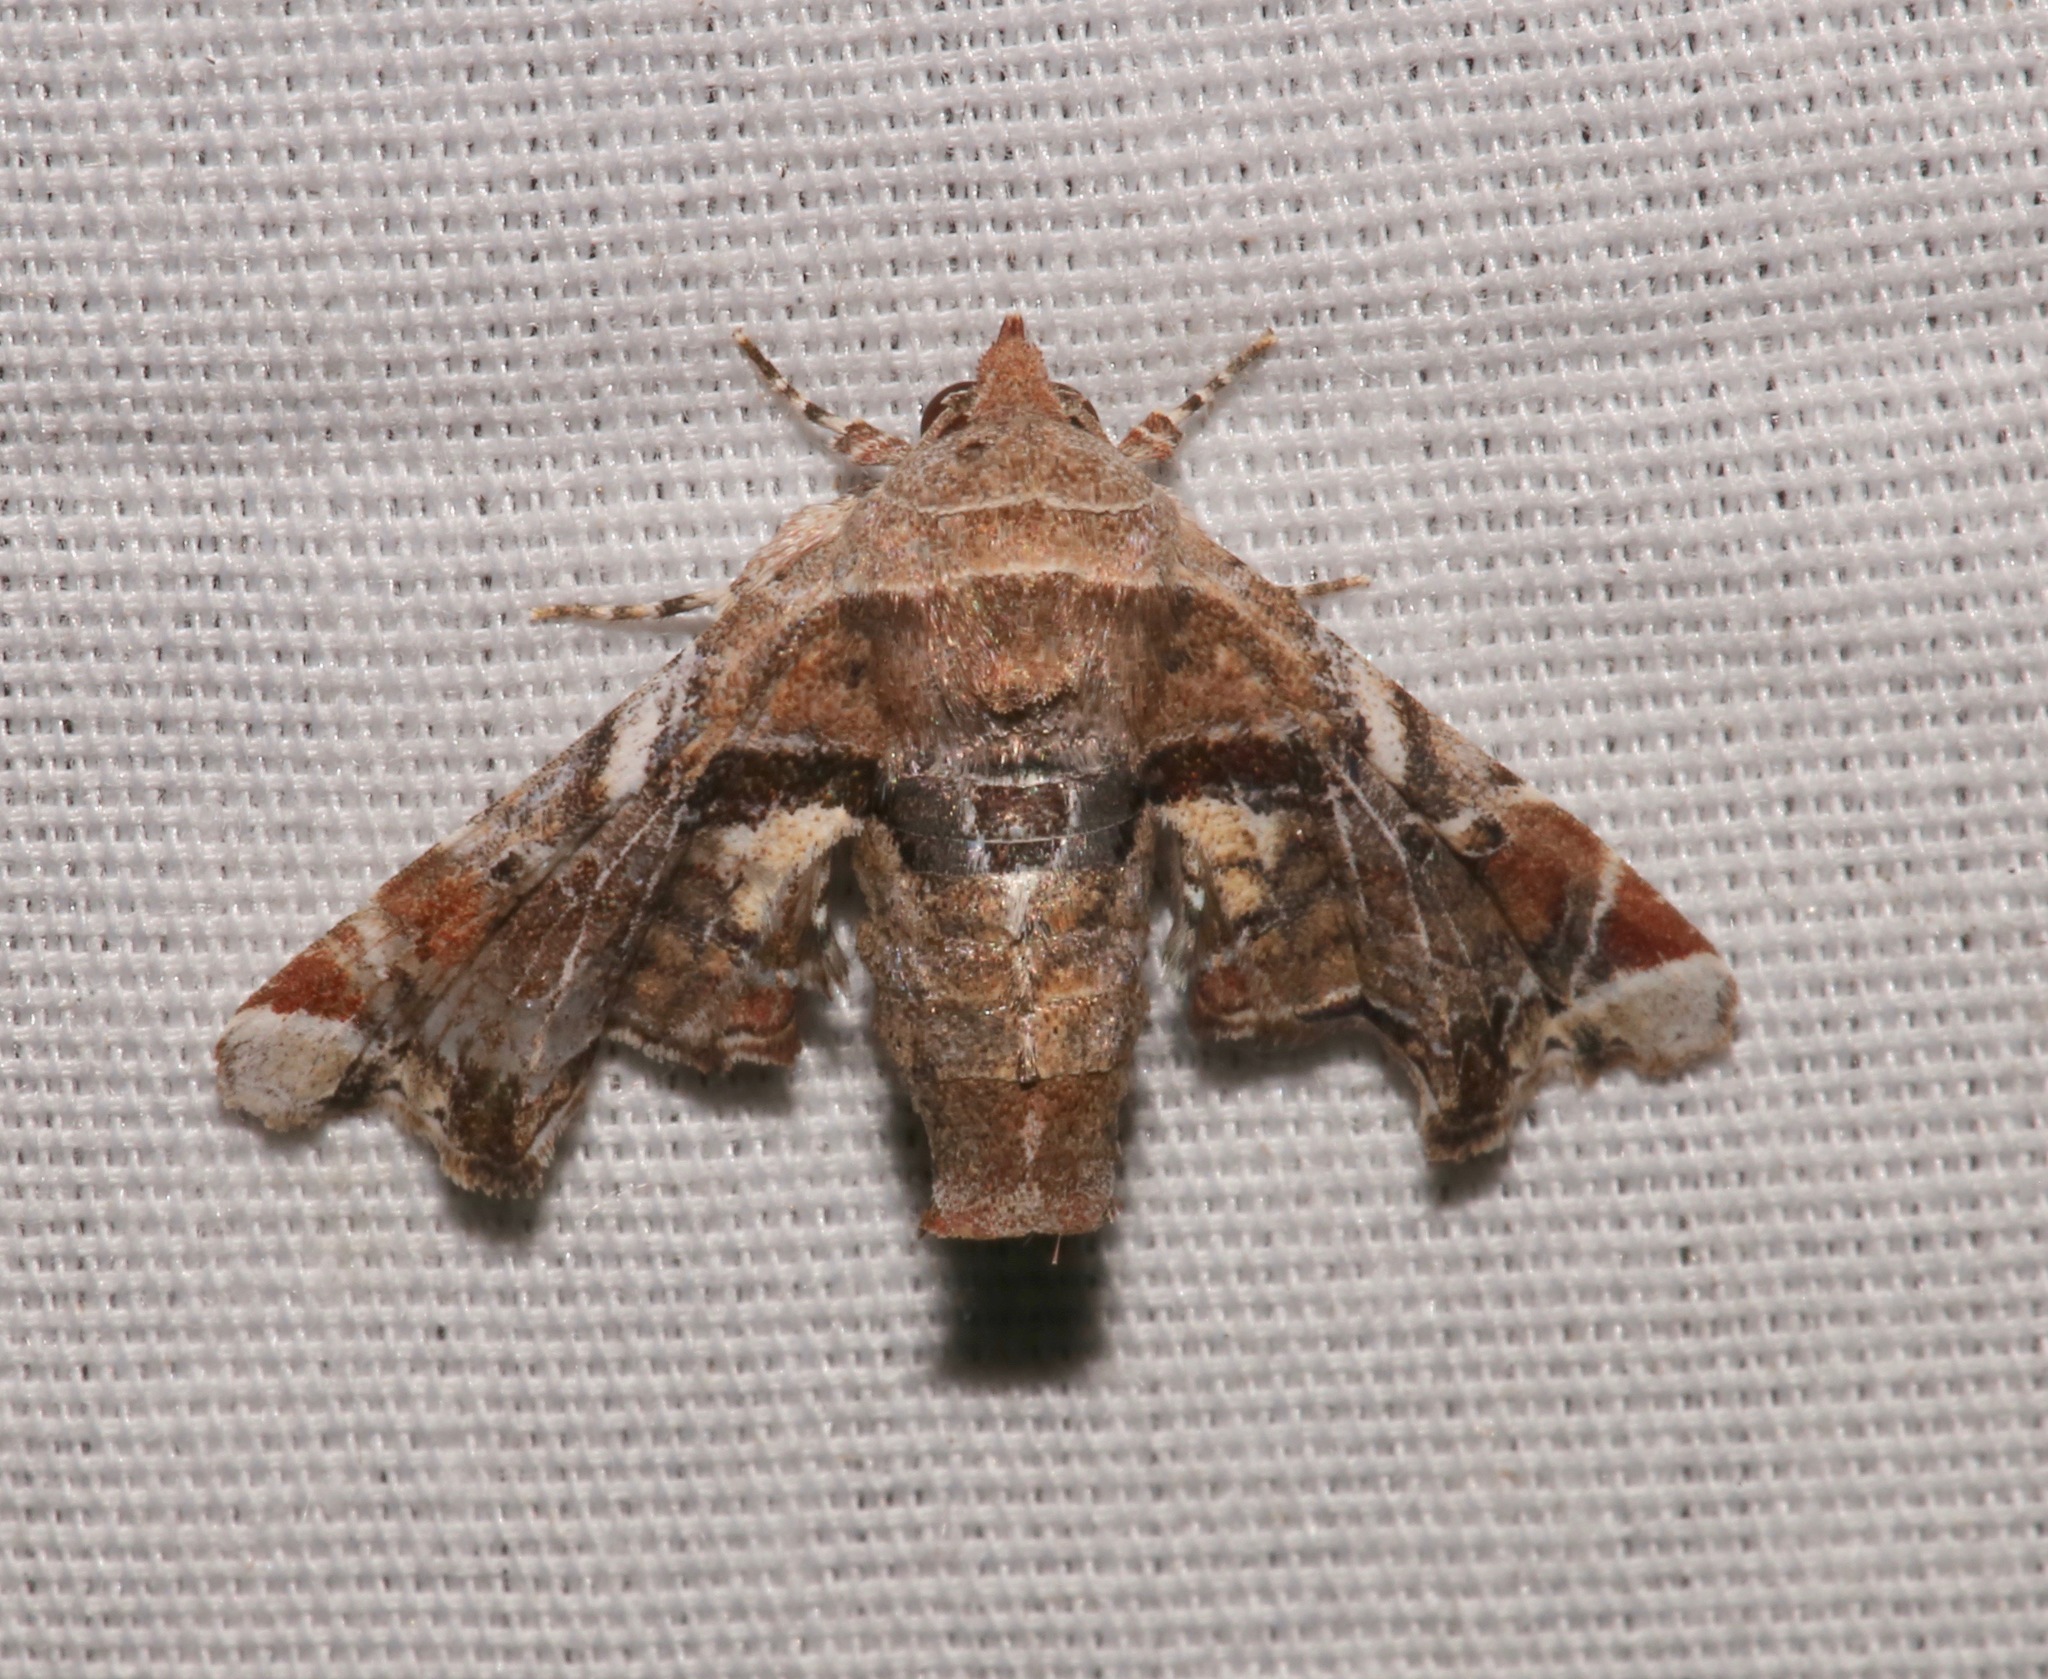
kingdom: Animalia
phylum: Arthropoda
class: Insecta
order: Lepidoptera
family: Euteliidae
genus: Eutelia
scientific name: Eutelia furcata
